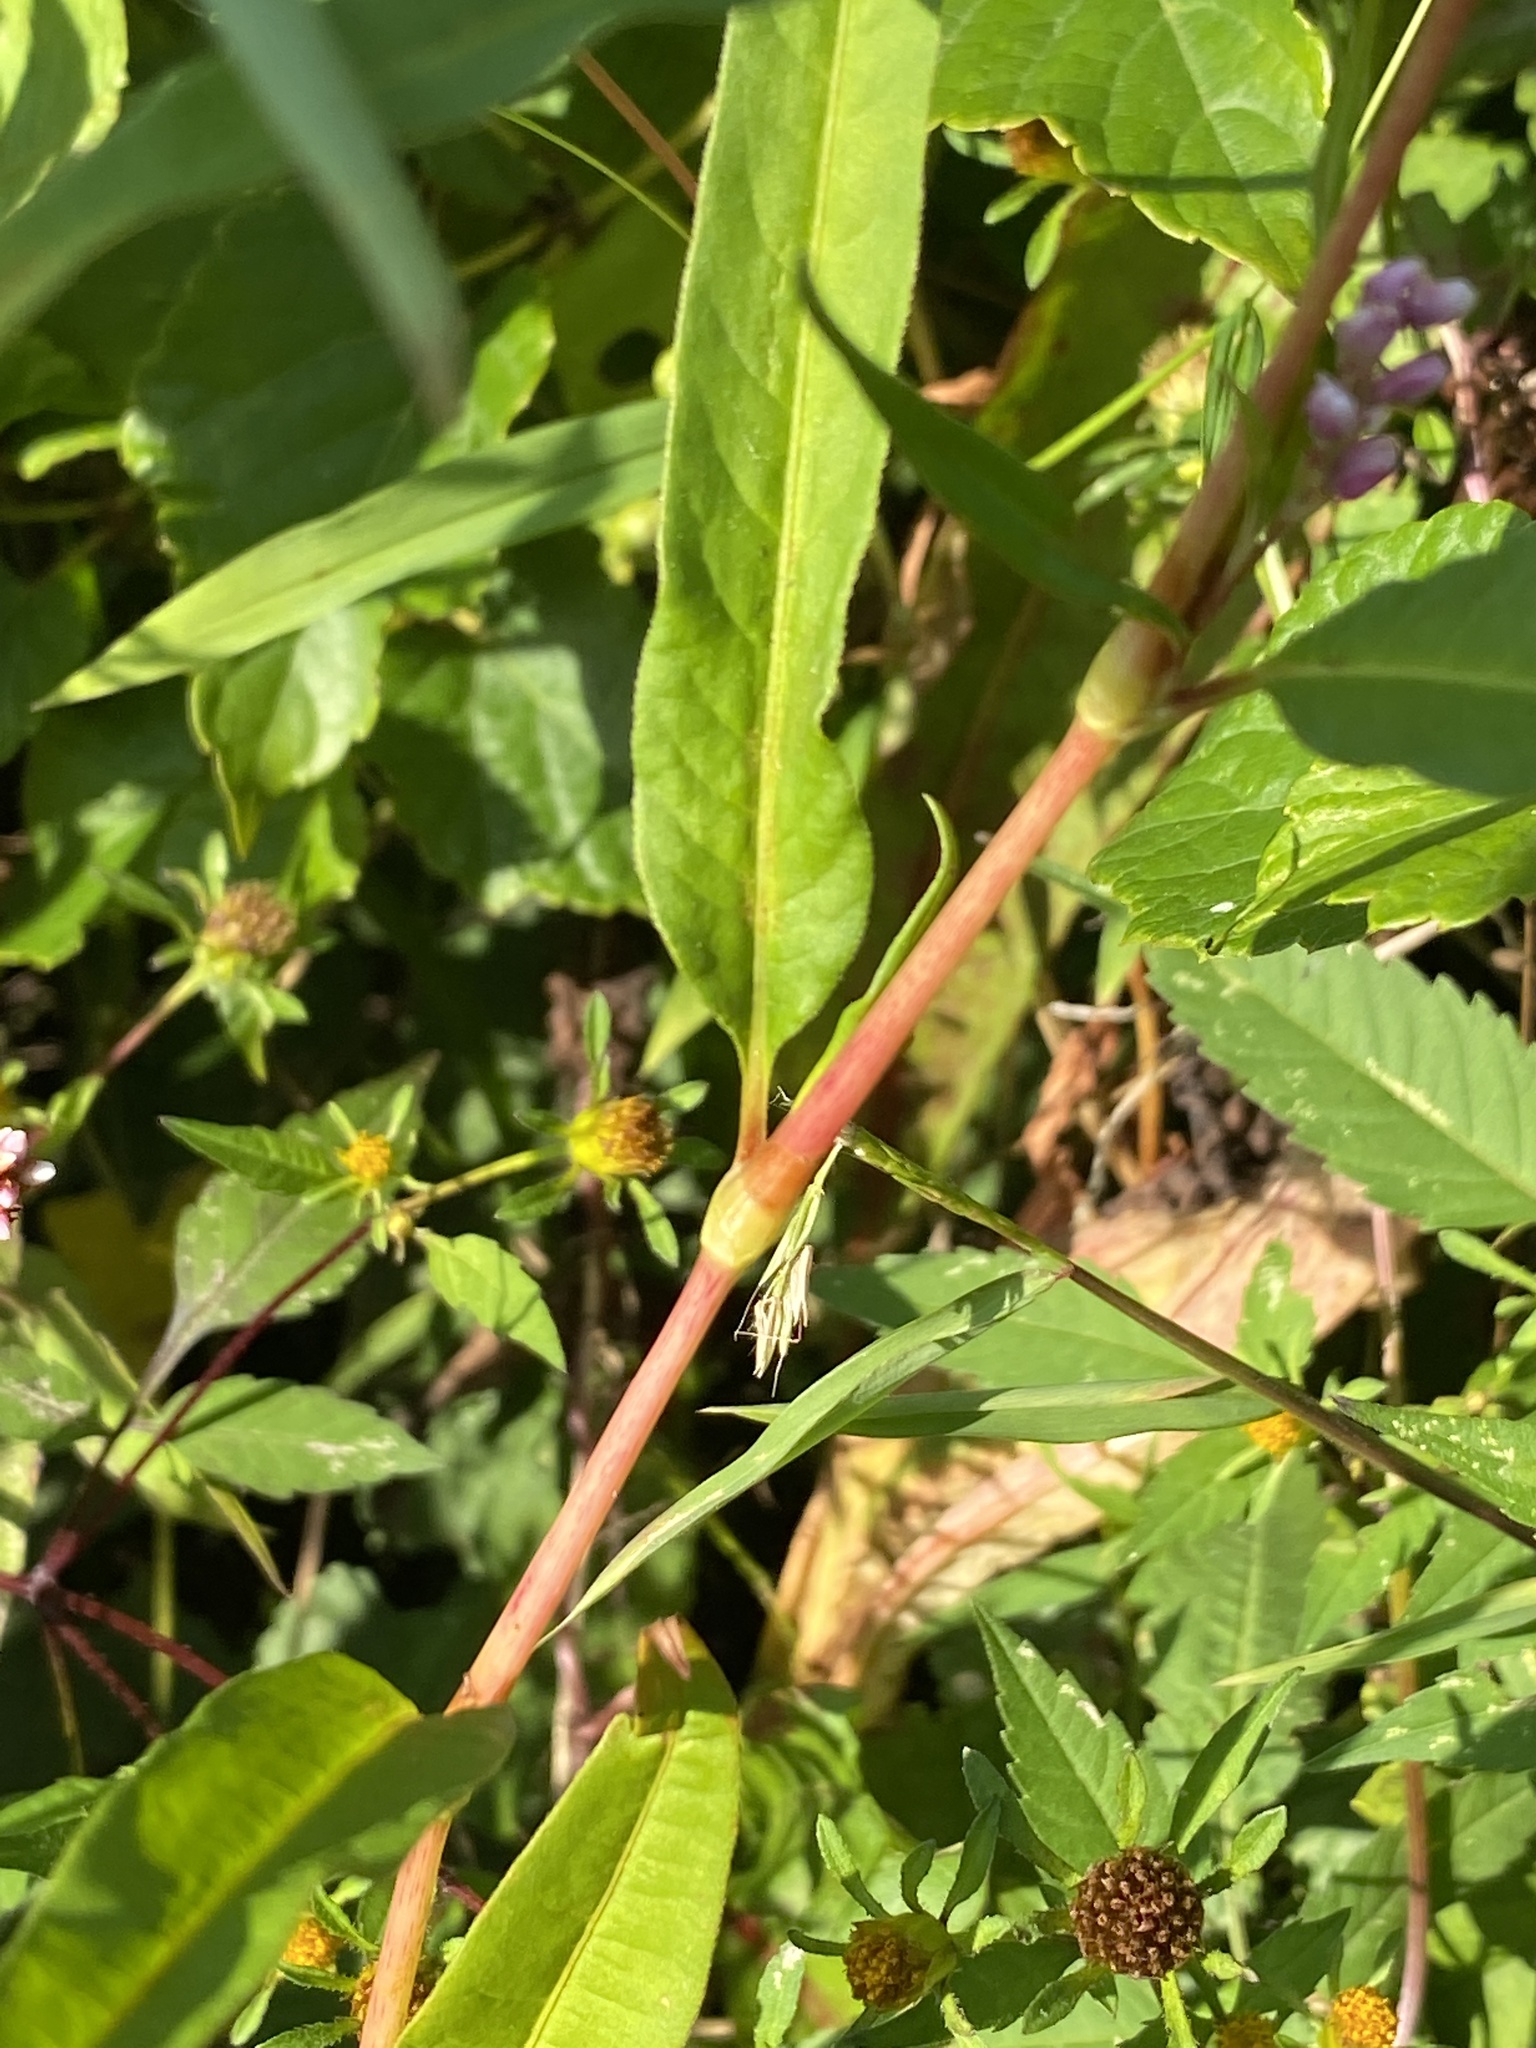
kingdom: Plantae
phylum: Tracheophyta
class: Magnoliopsida
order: Caryophyllales
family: Polygonaceae
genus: Persicaria
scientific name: Persicaria pensylvanica
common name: Pinkweed
